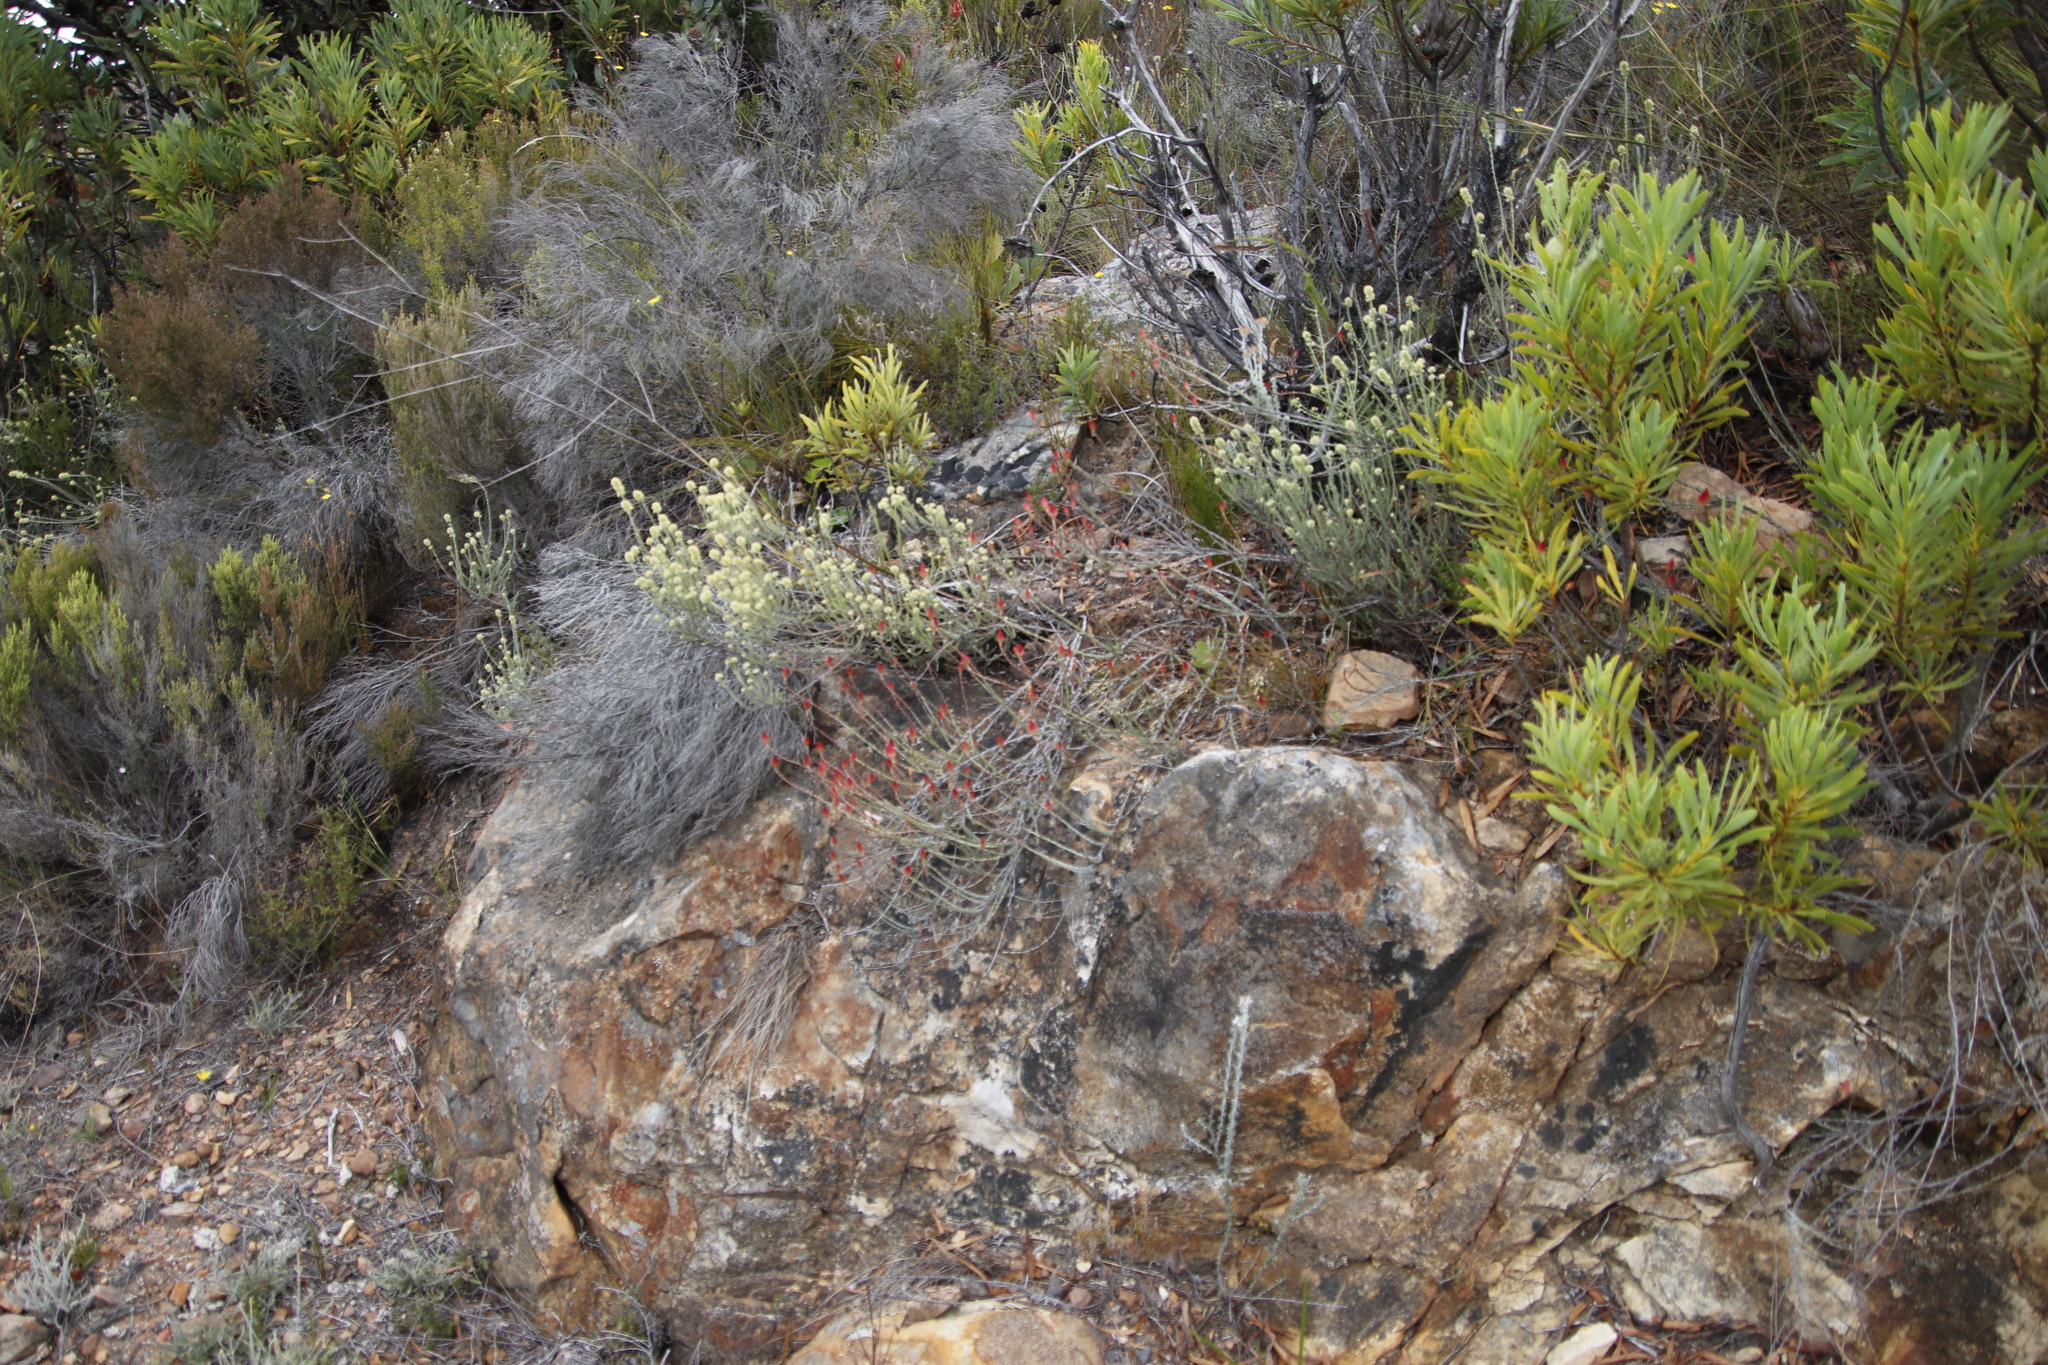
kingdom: Plantae
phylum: Tracheophyta
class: Magnoliopsida
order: Asterales
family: Asteraceae
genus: Syncarpha
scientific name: Syncarpha canescens
